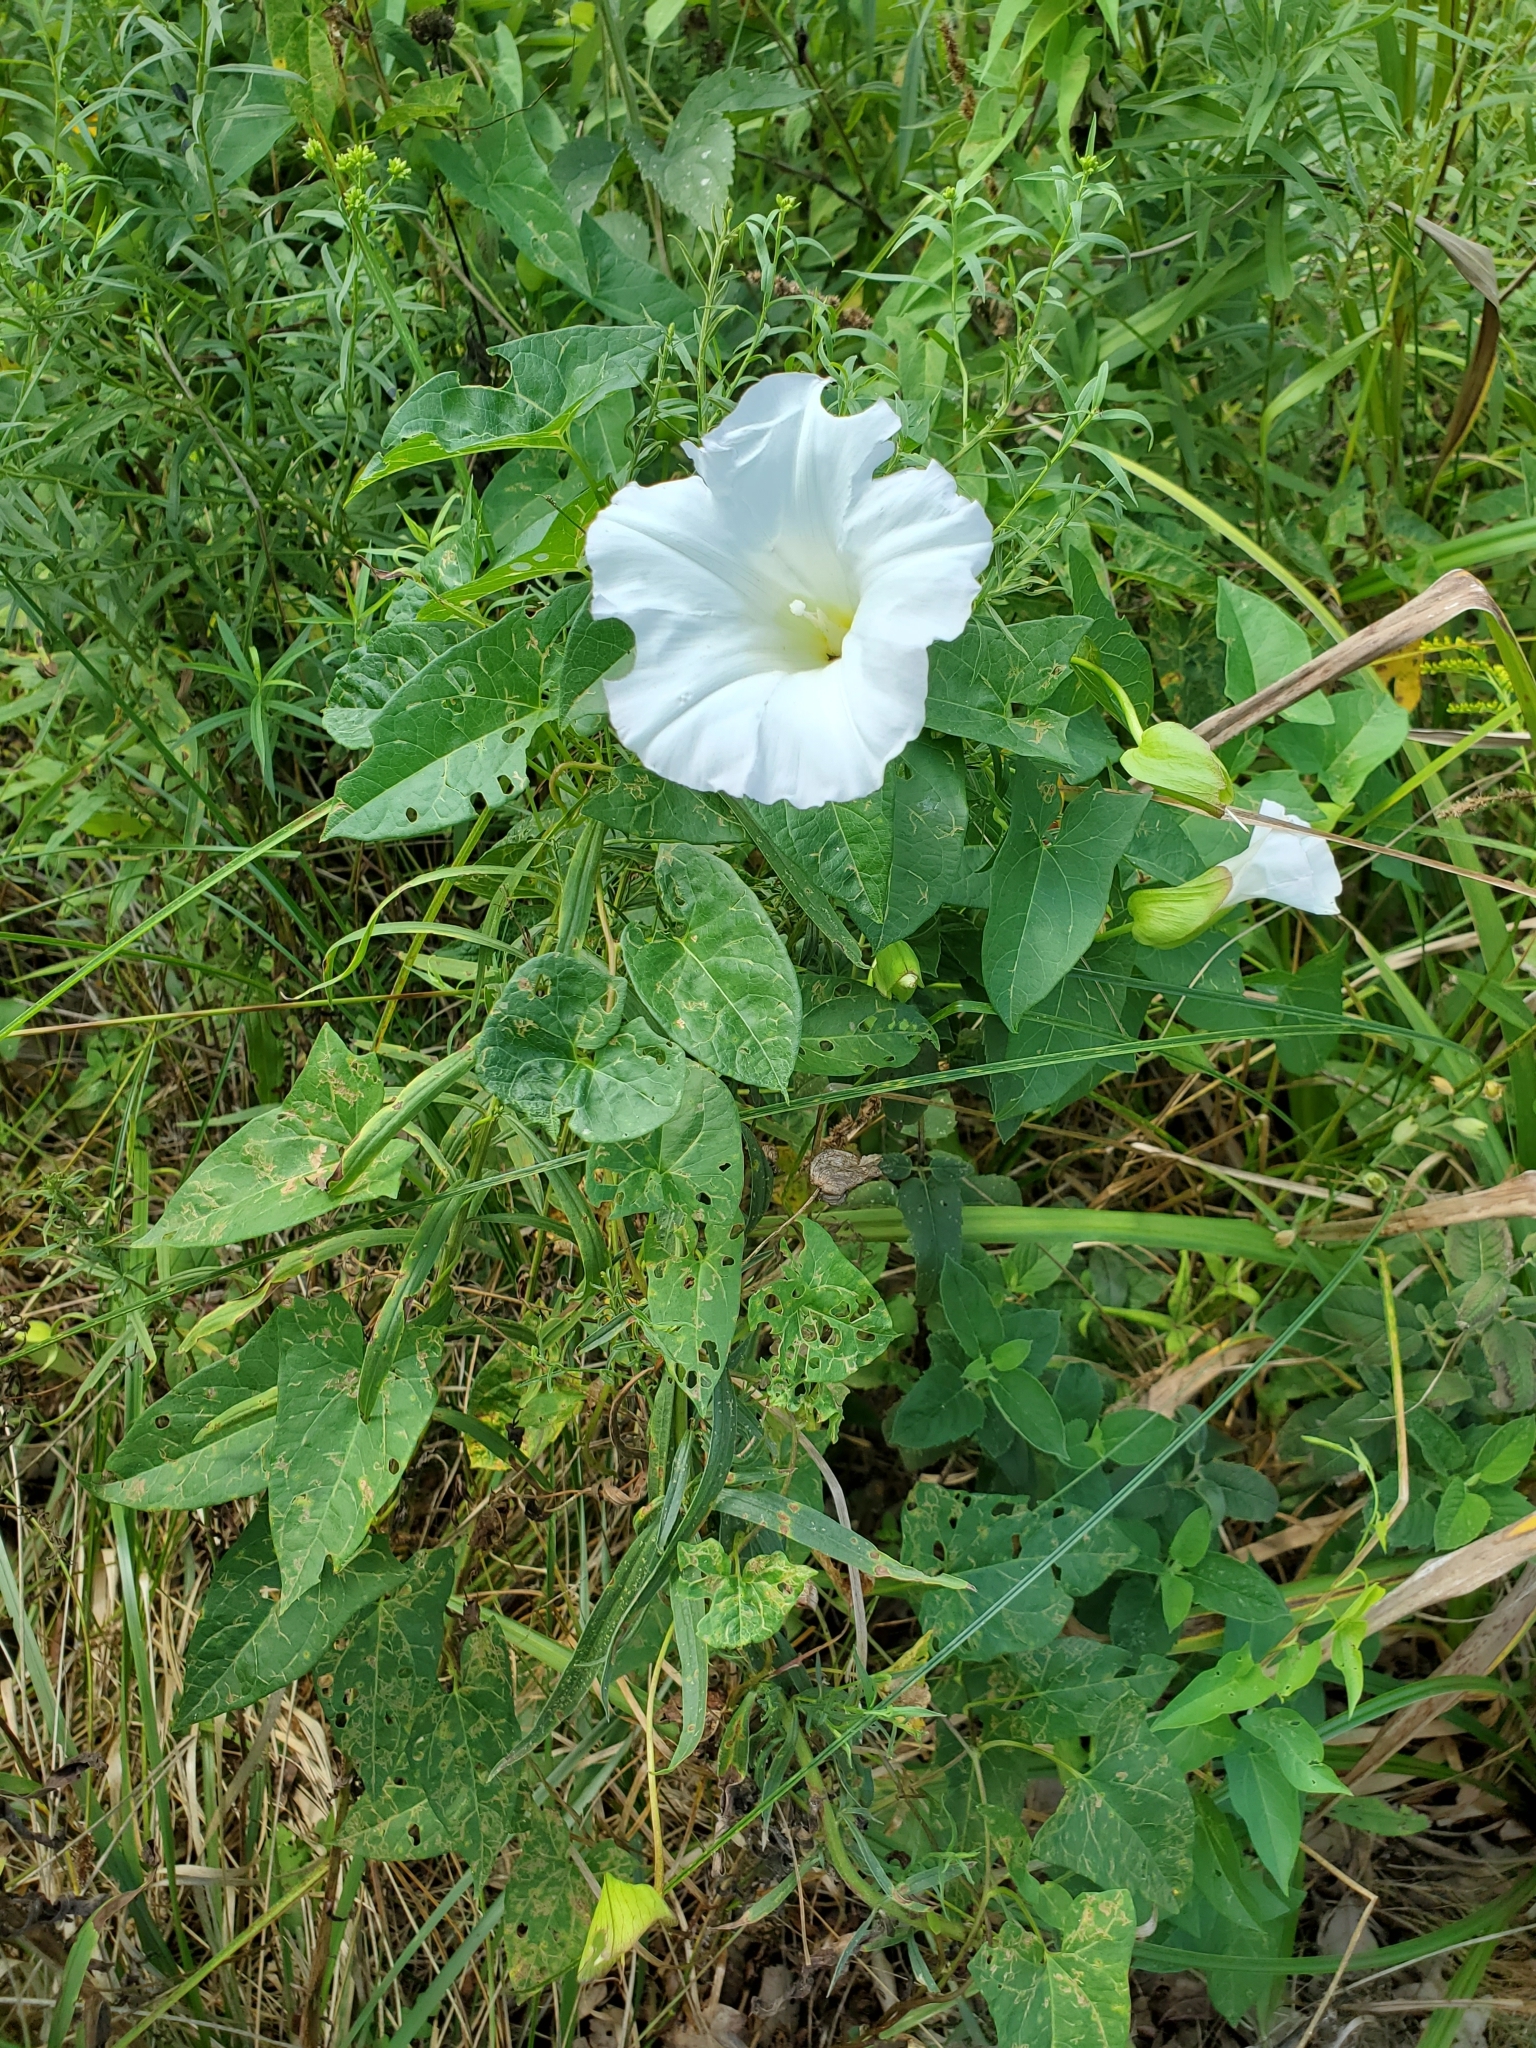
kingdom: Plantae
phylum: Tracheophyta
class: Magnoliopsida
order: Solanales
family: Convolvulaceae
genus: Calystegia
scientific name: Calystegia silvatica
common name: Large bindweed
